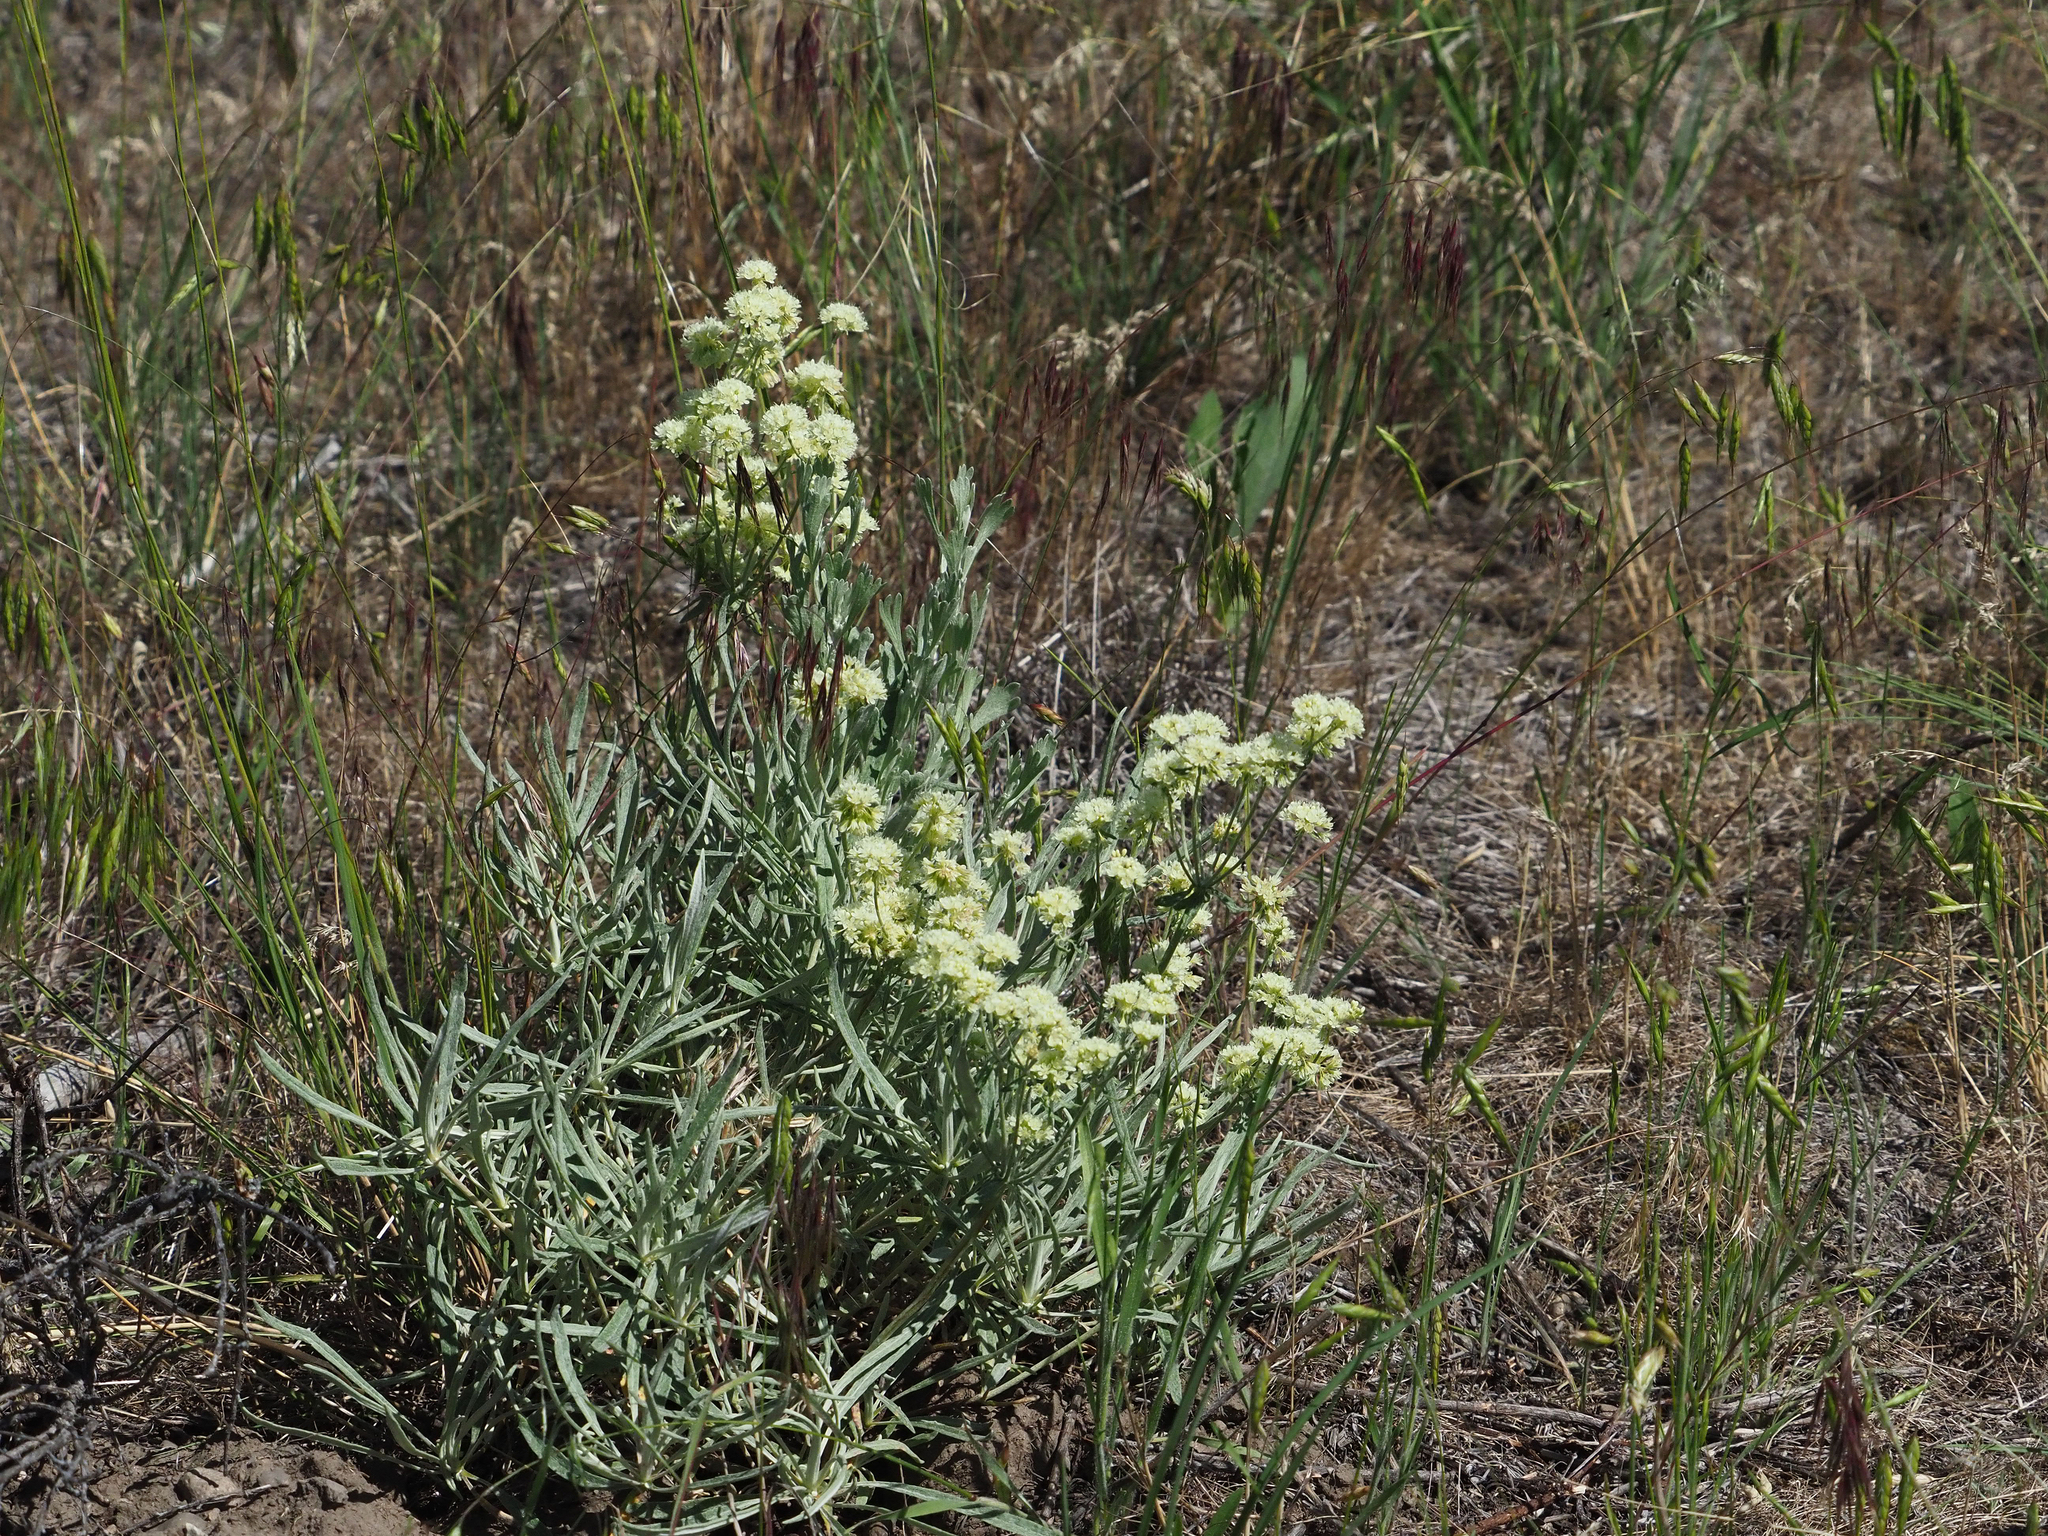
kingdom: Plantae
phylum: Tracheophyta
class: Magnoliopsida
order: Caryophyllales
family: Polygonaceae
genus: Eriogonum
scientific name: Eriogonum heracleoides
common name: Wyeth's buckwheat
